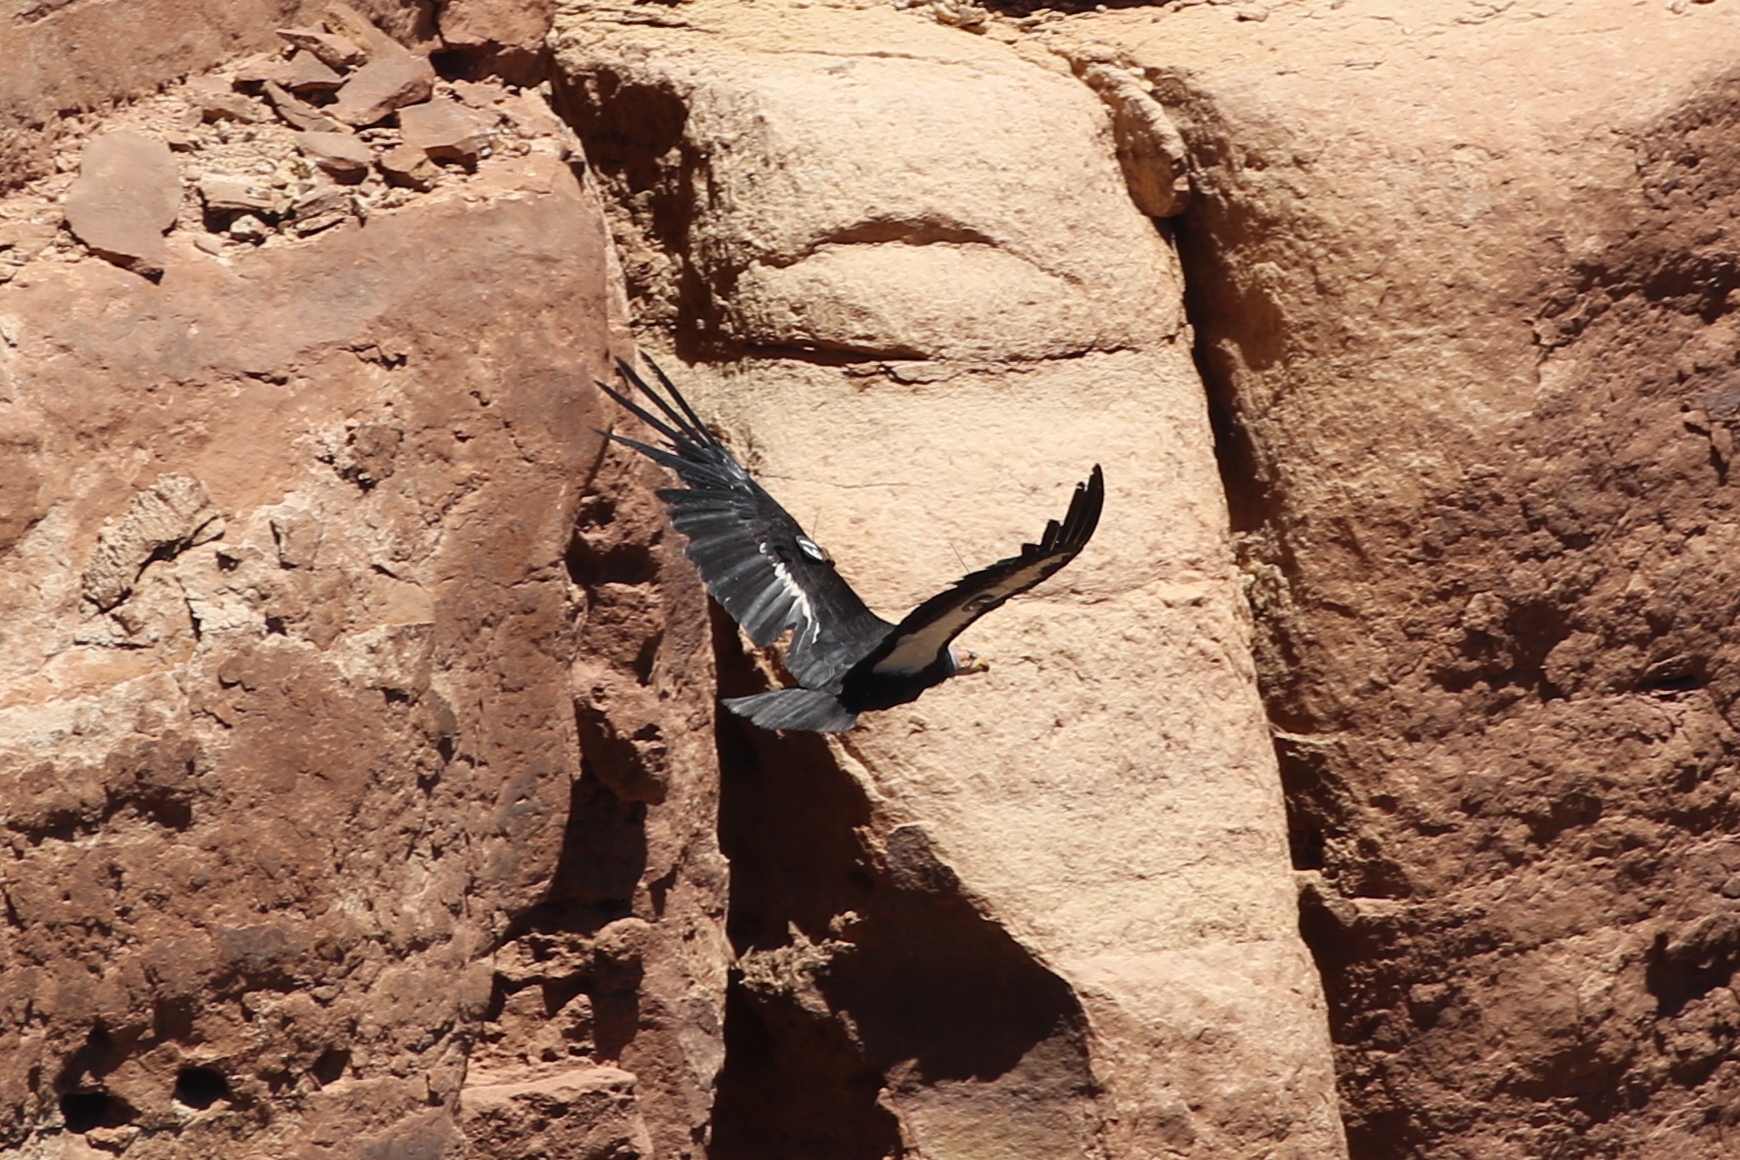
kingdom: Animalia
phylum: Chordata
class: Aves
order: Accipitriformes
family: Cathartidae
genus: Gymnogyps
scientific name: Gymnogyps californianus
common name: California condor
